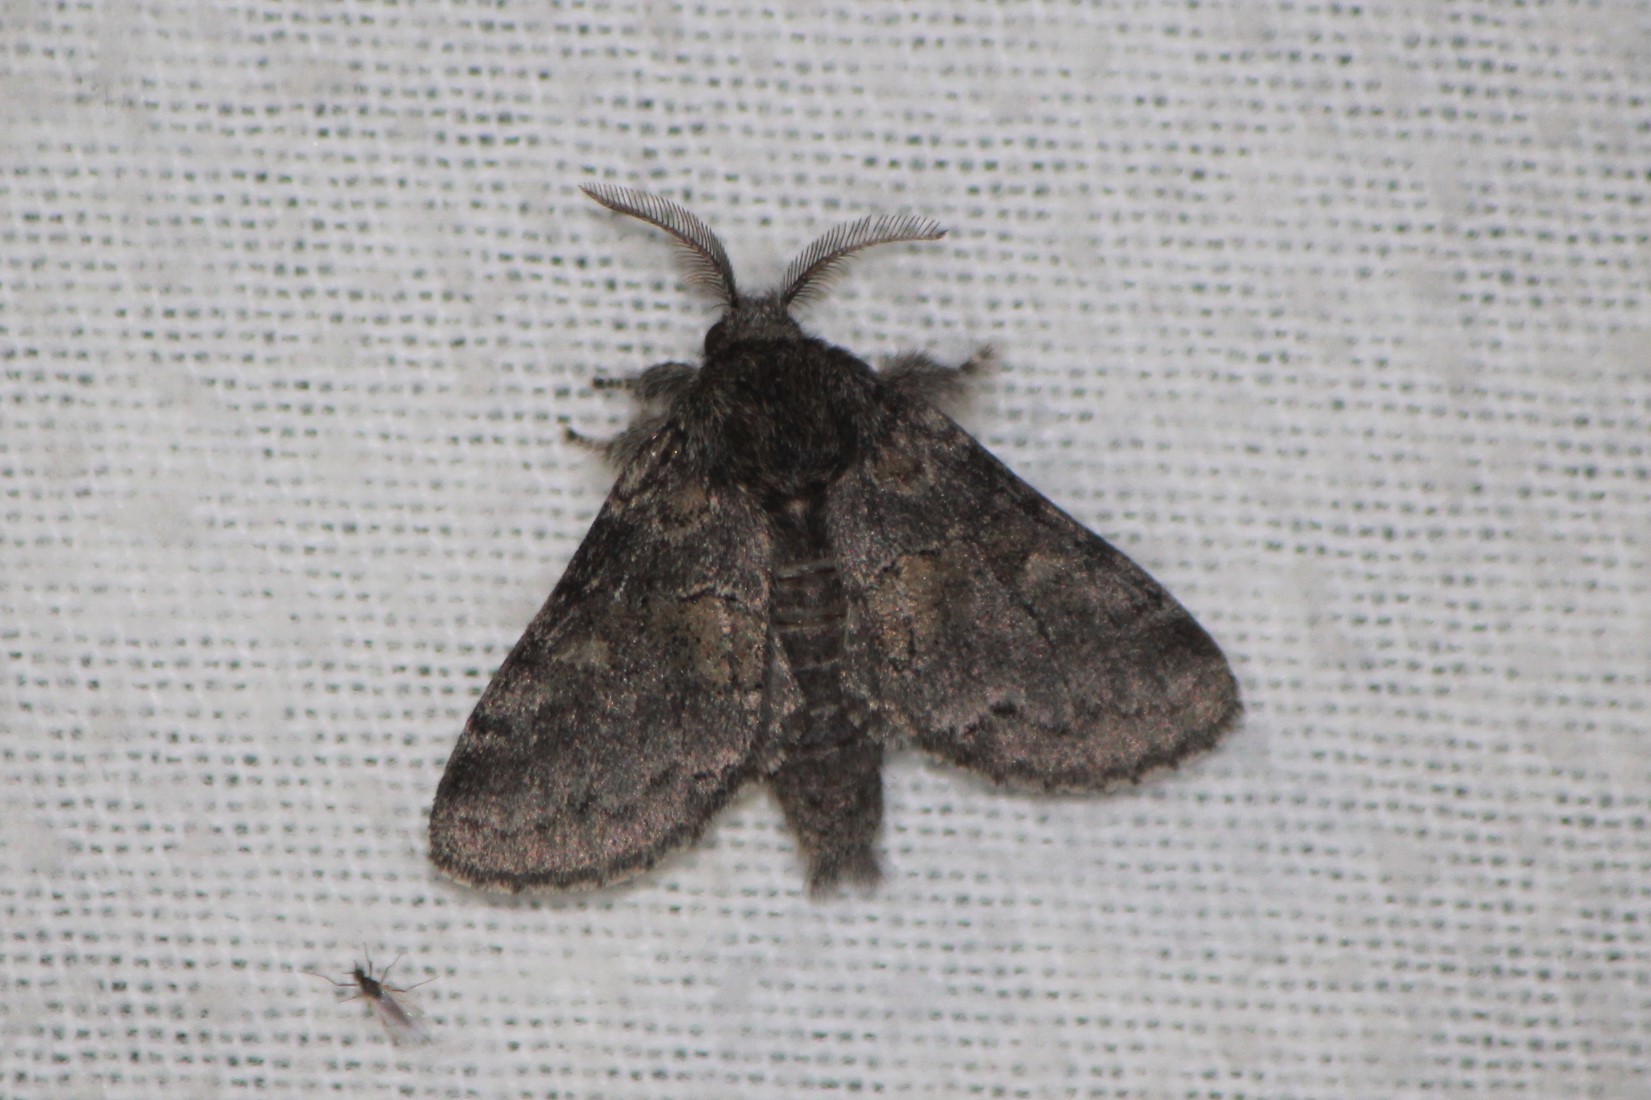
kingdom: Animalia
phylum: Arthropoda
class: Insecta
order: Lepidoptera
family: Notodontidae
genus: Gluphisia
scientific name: Gluphisia septentrionis
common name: Common gluphisia
